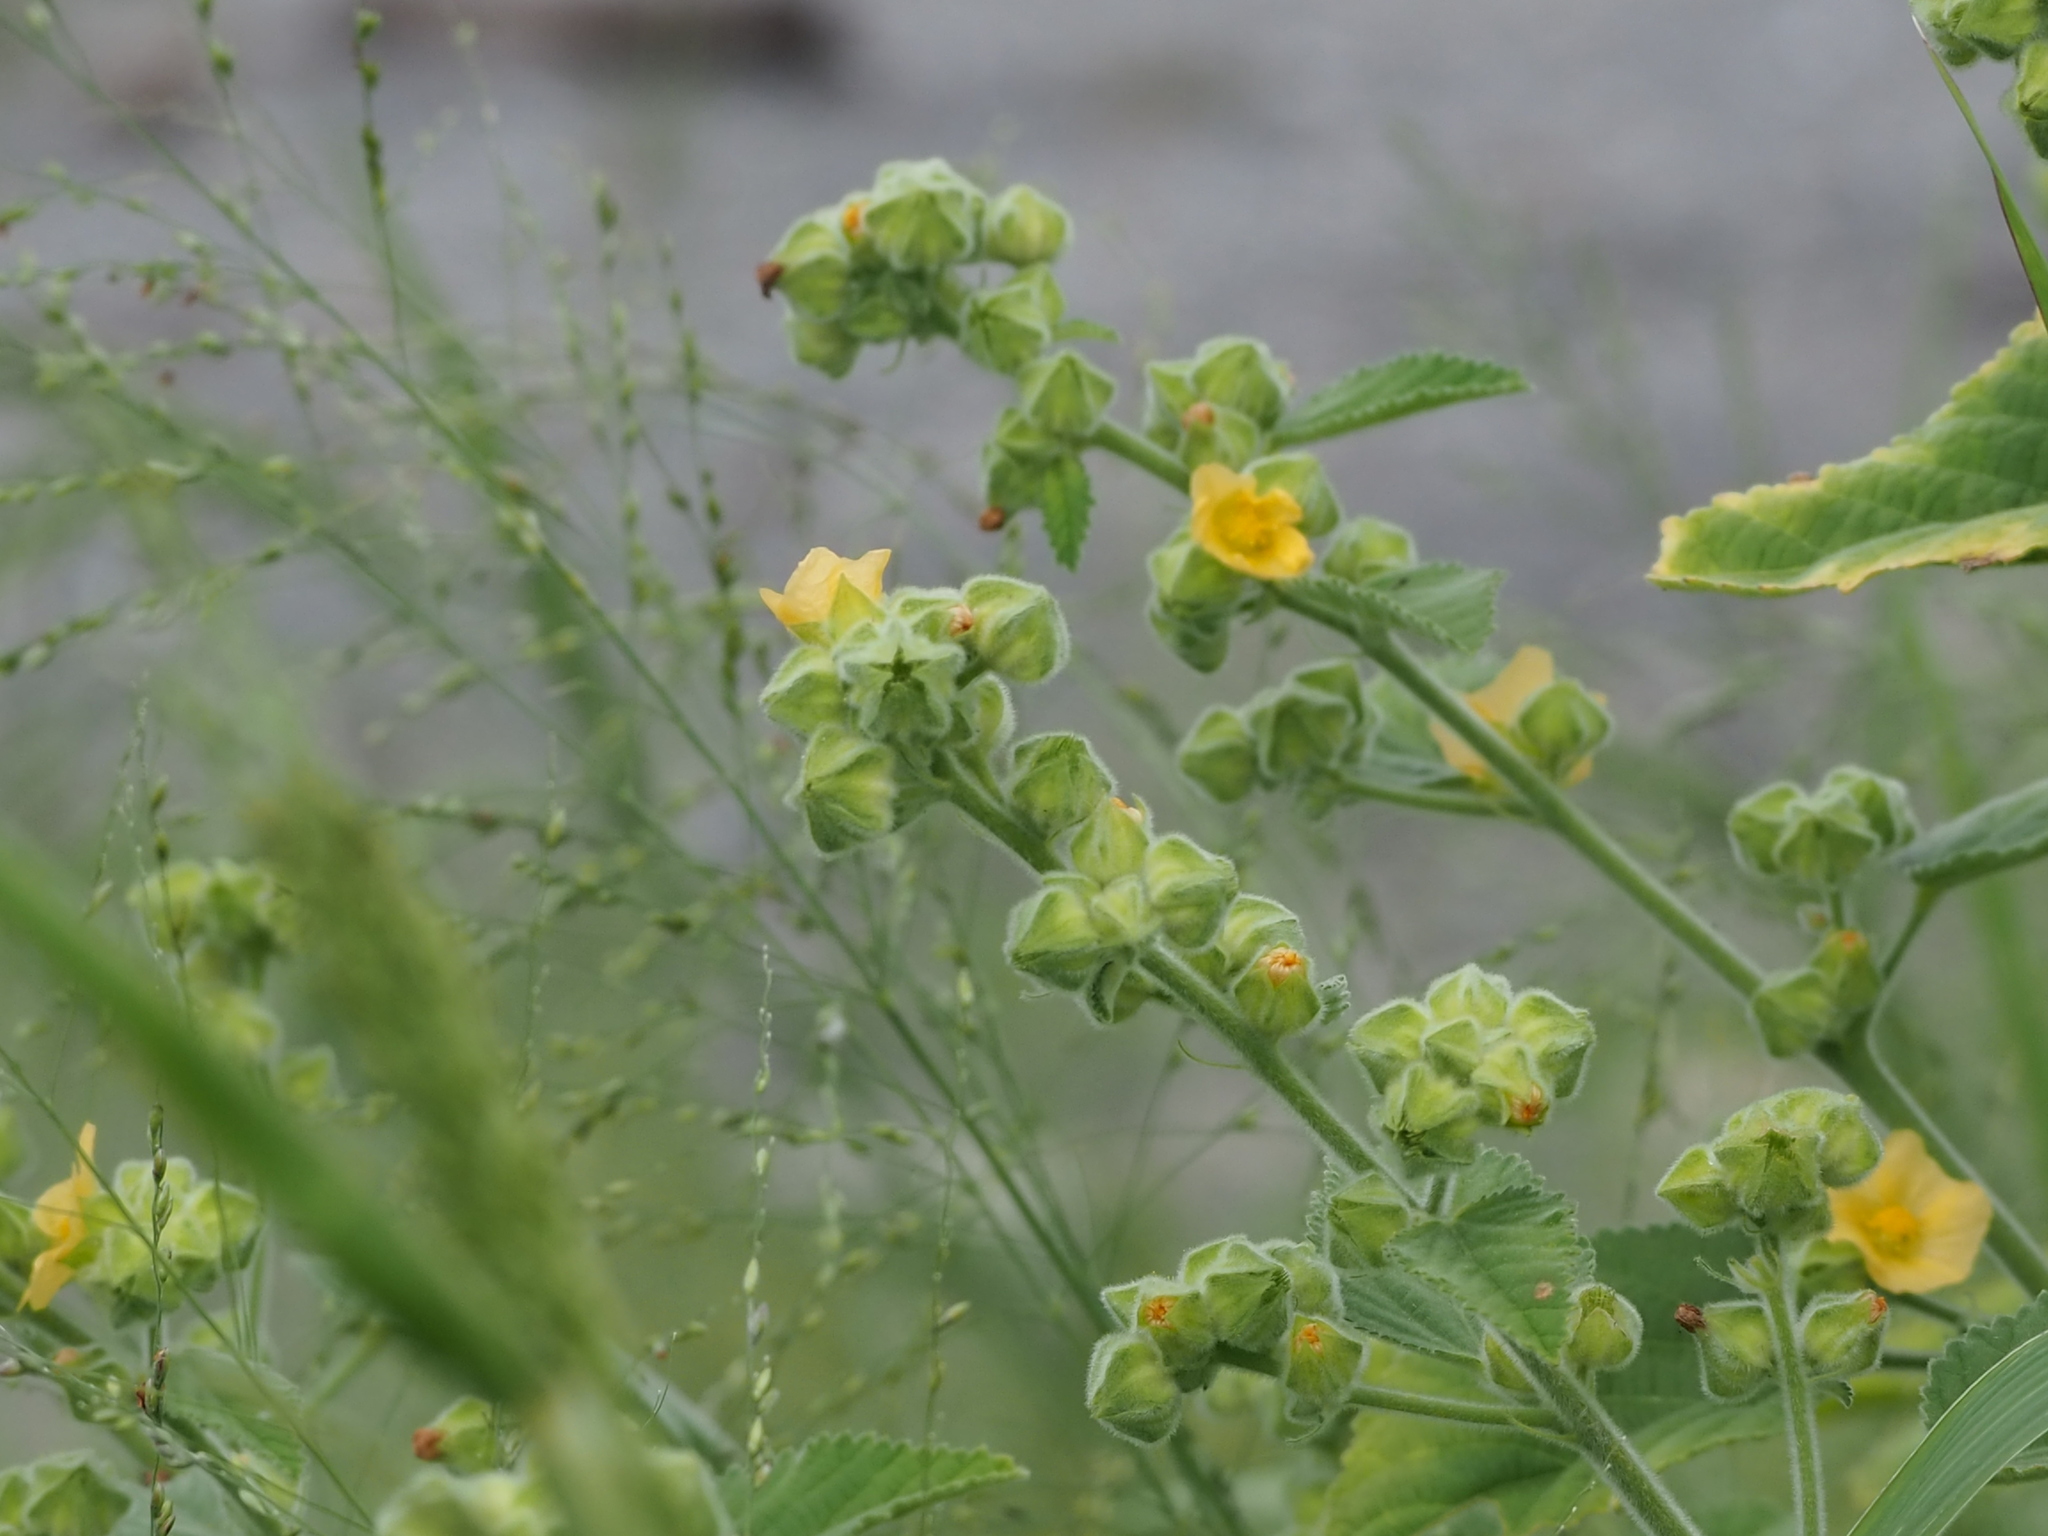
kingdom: Plantae
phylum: Tracheophyta
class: Magnoliopsida
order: Malvales
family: Malvaceae
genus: Sida
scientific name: Sida cordifolia
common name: Ilima
